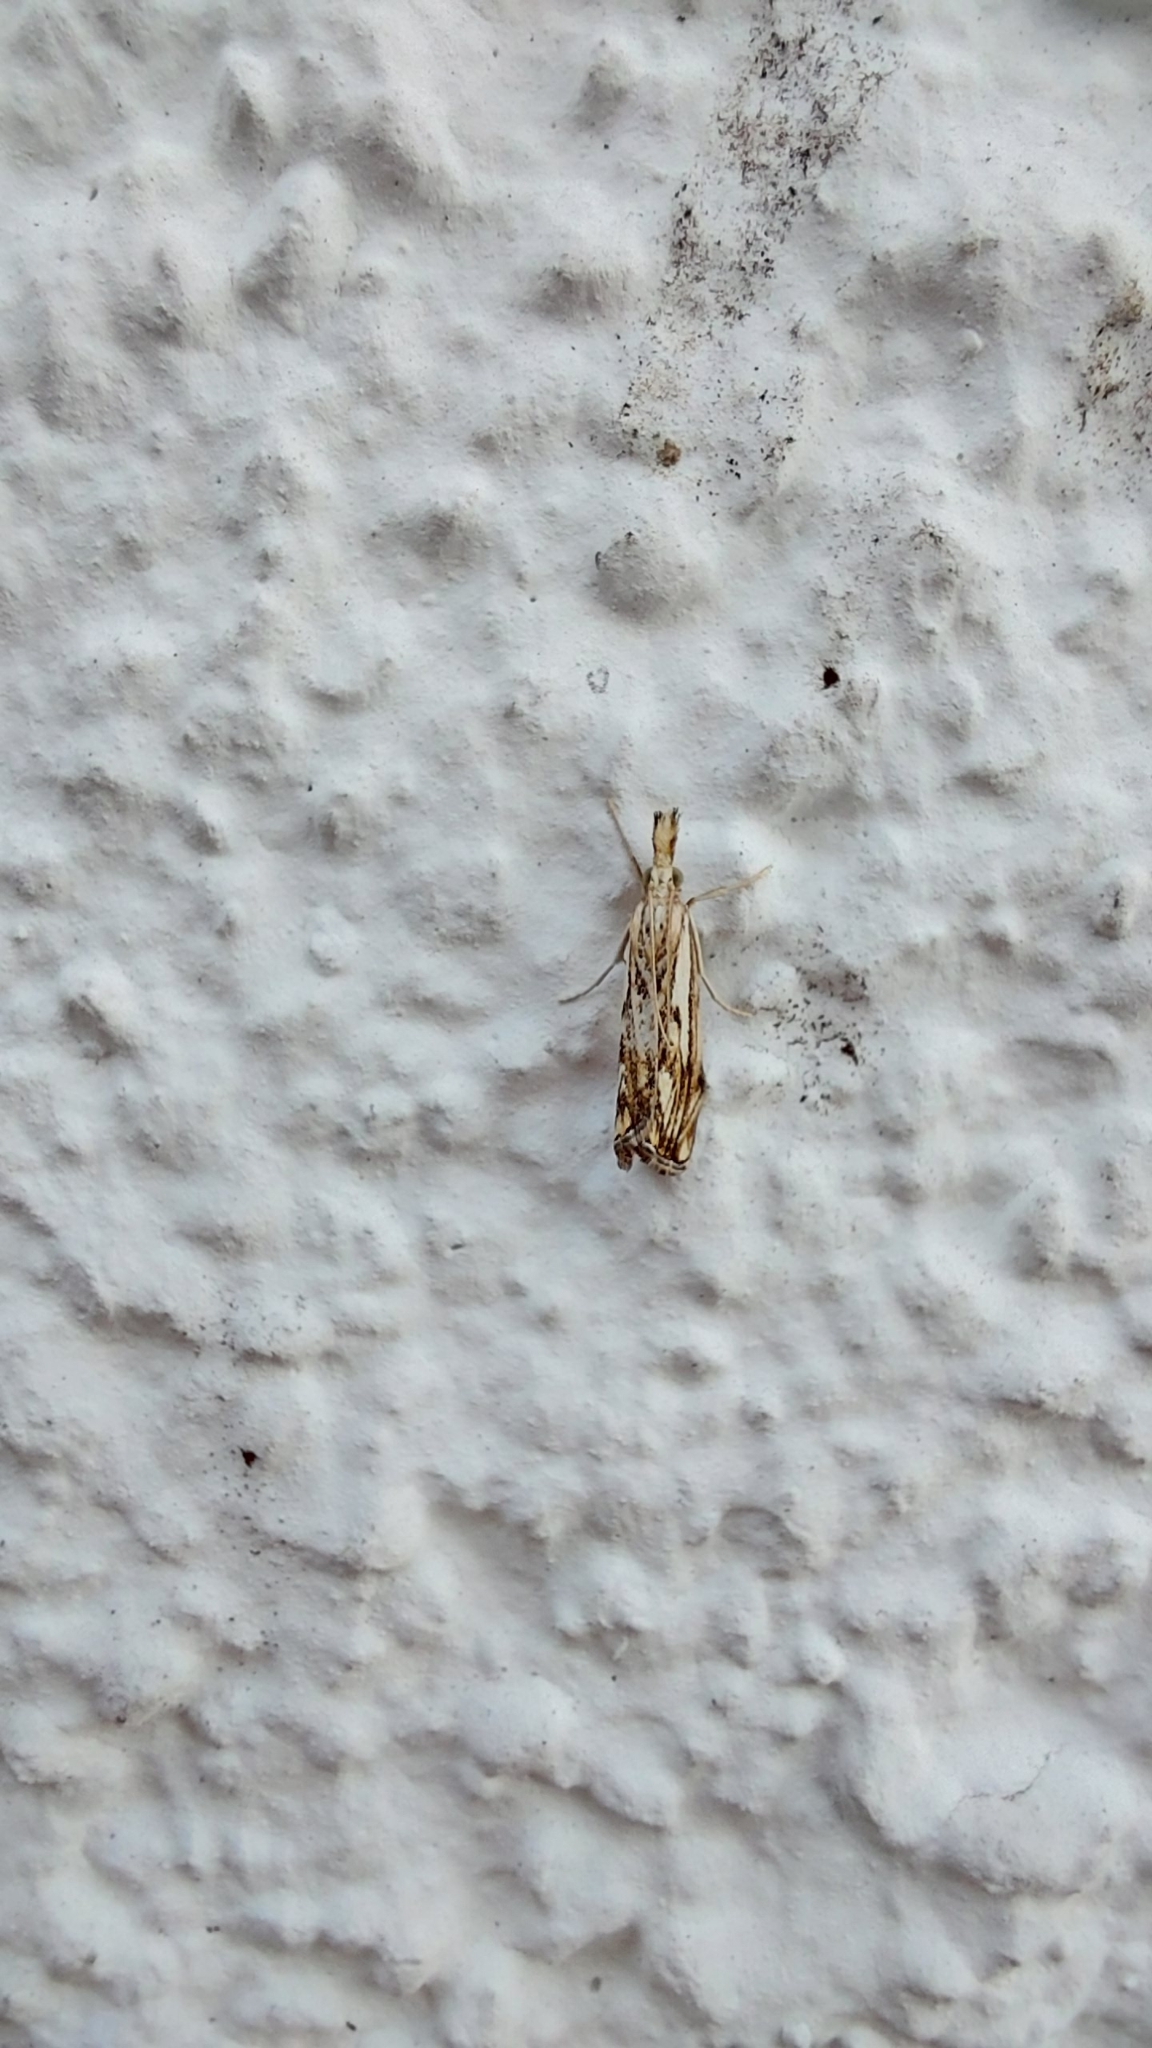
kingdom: Animalia
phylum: Arthropoda
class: Insecta
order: Lepidoptera
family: Crambidae
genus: Catoptria
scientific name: Catoptria falsella
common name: Chequered grass-veneer
